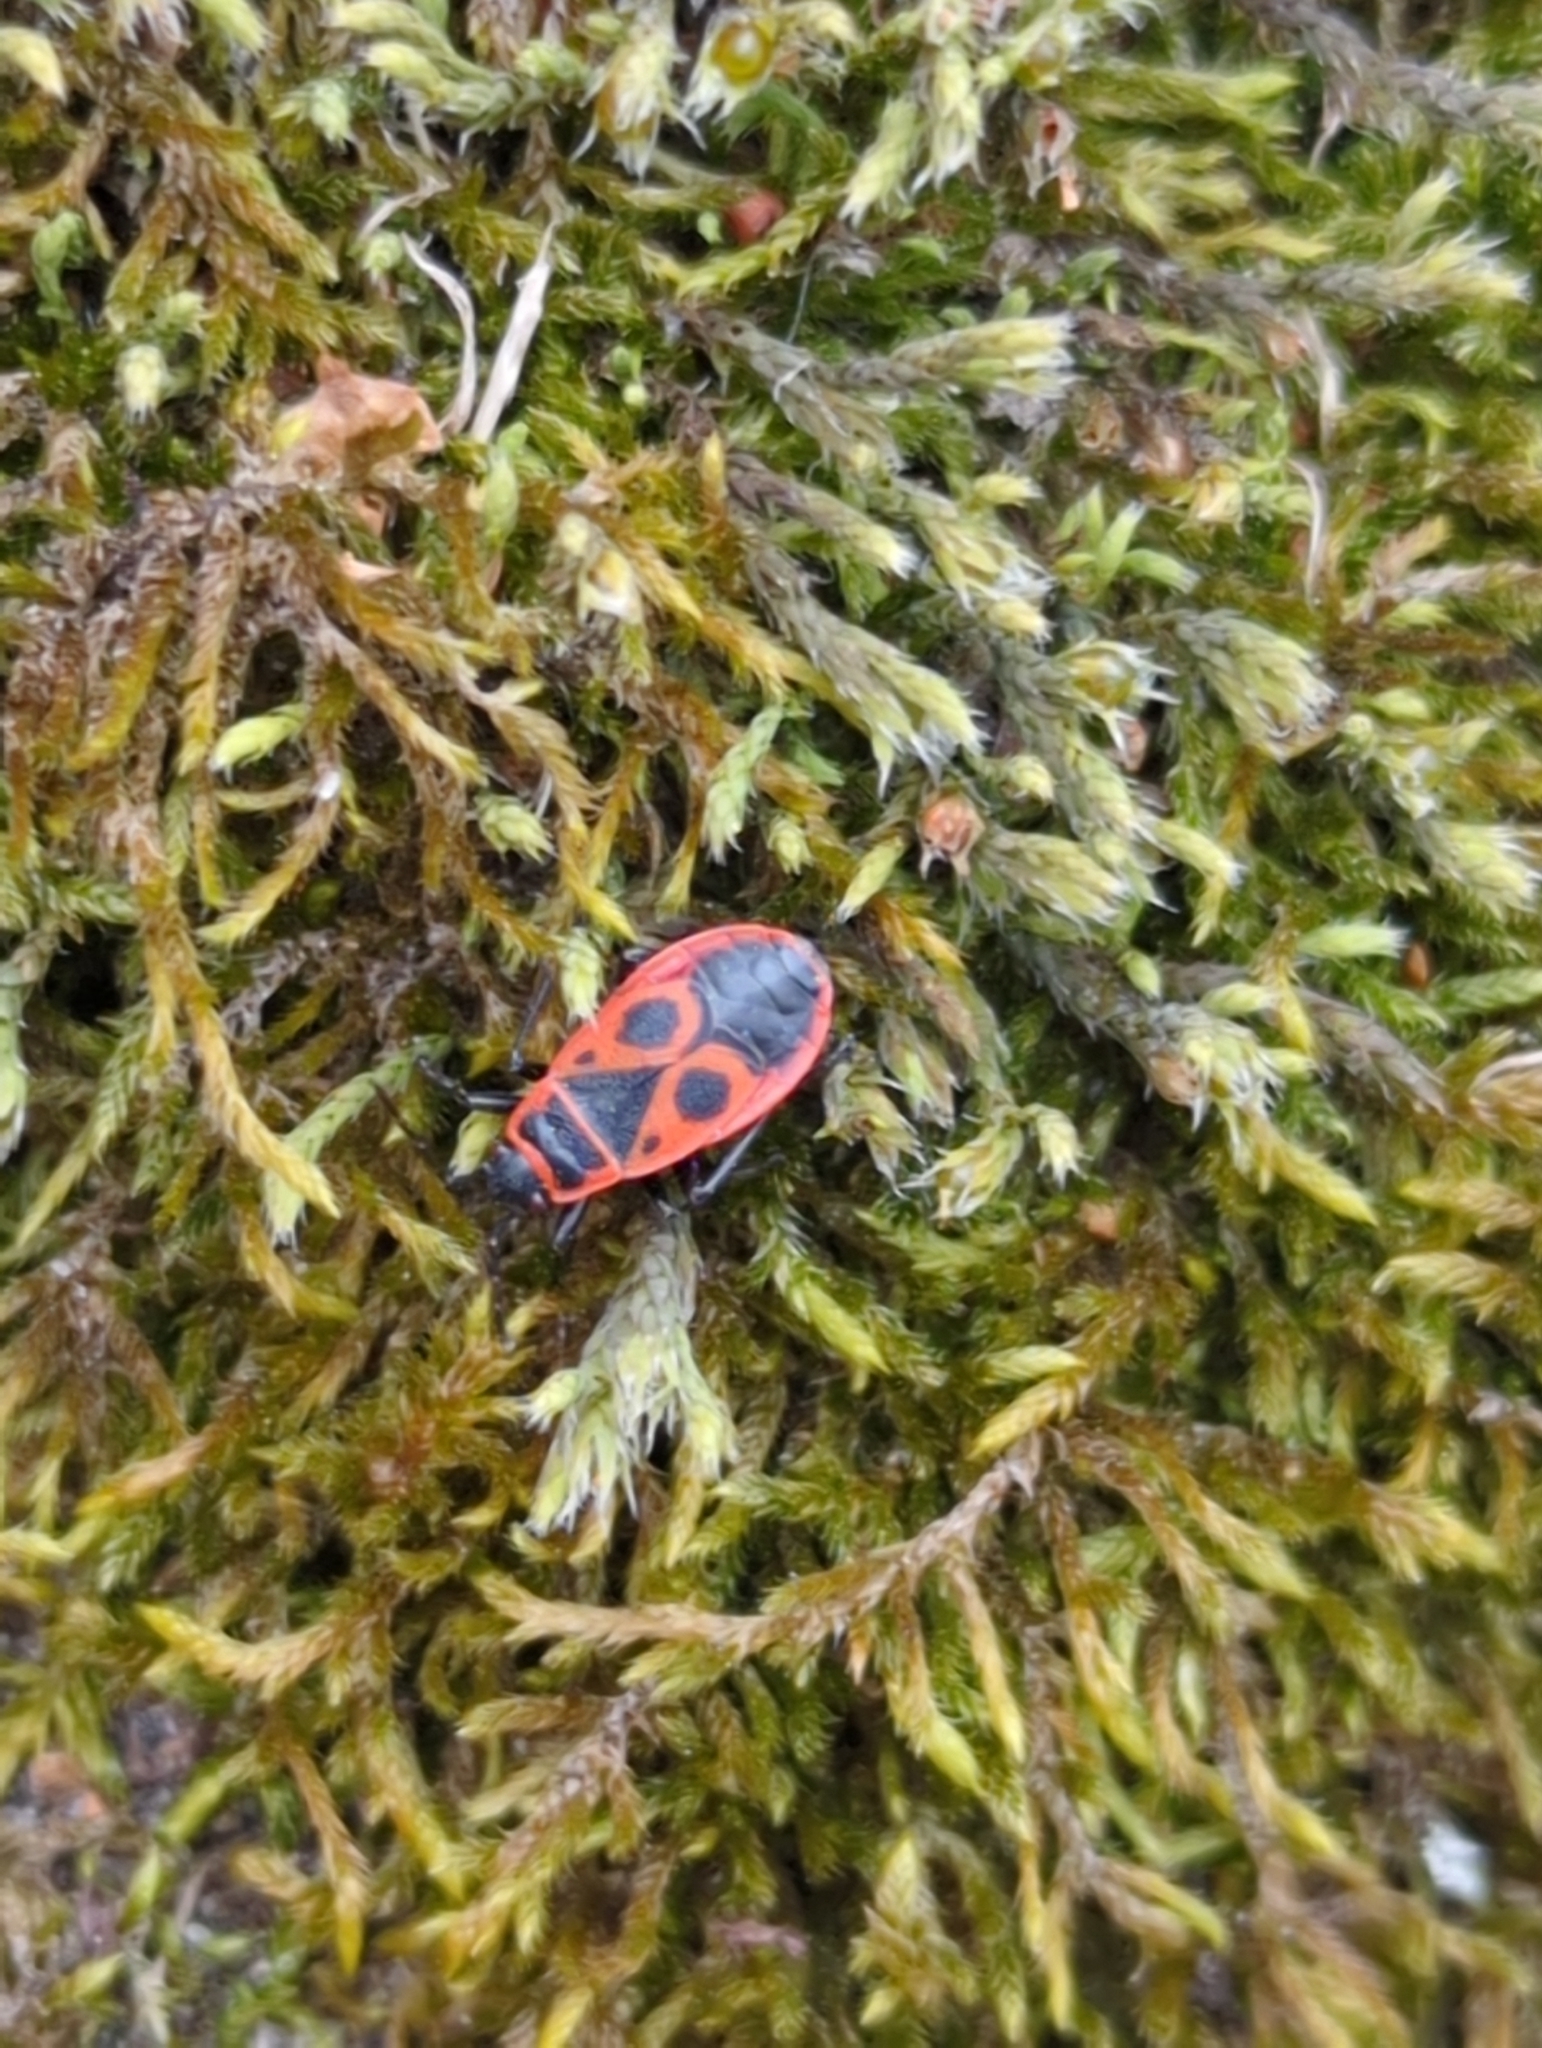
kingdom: Animalia
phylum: Arthropoda
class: Insecta
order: Hemiptera
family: Pyrrhocoridae
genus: Pyrrhocoris
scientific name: Pyrrhocoris apterus
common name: Firebug
